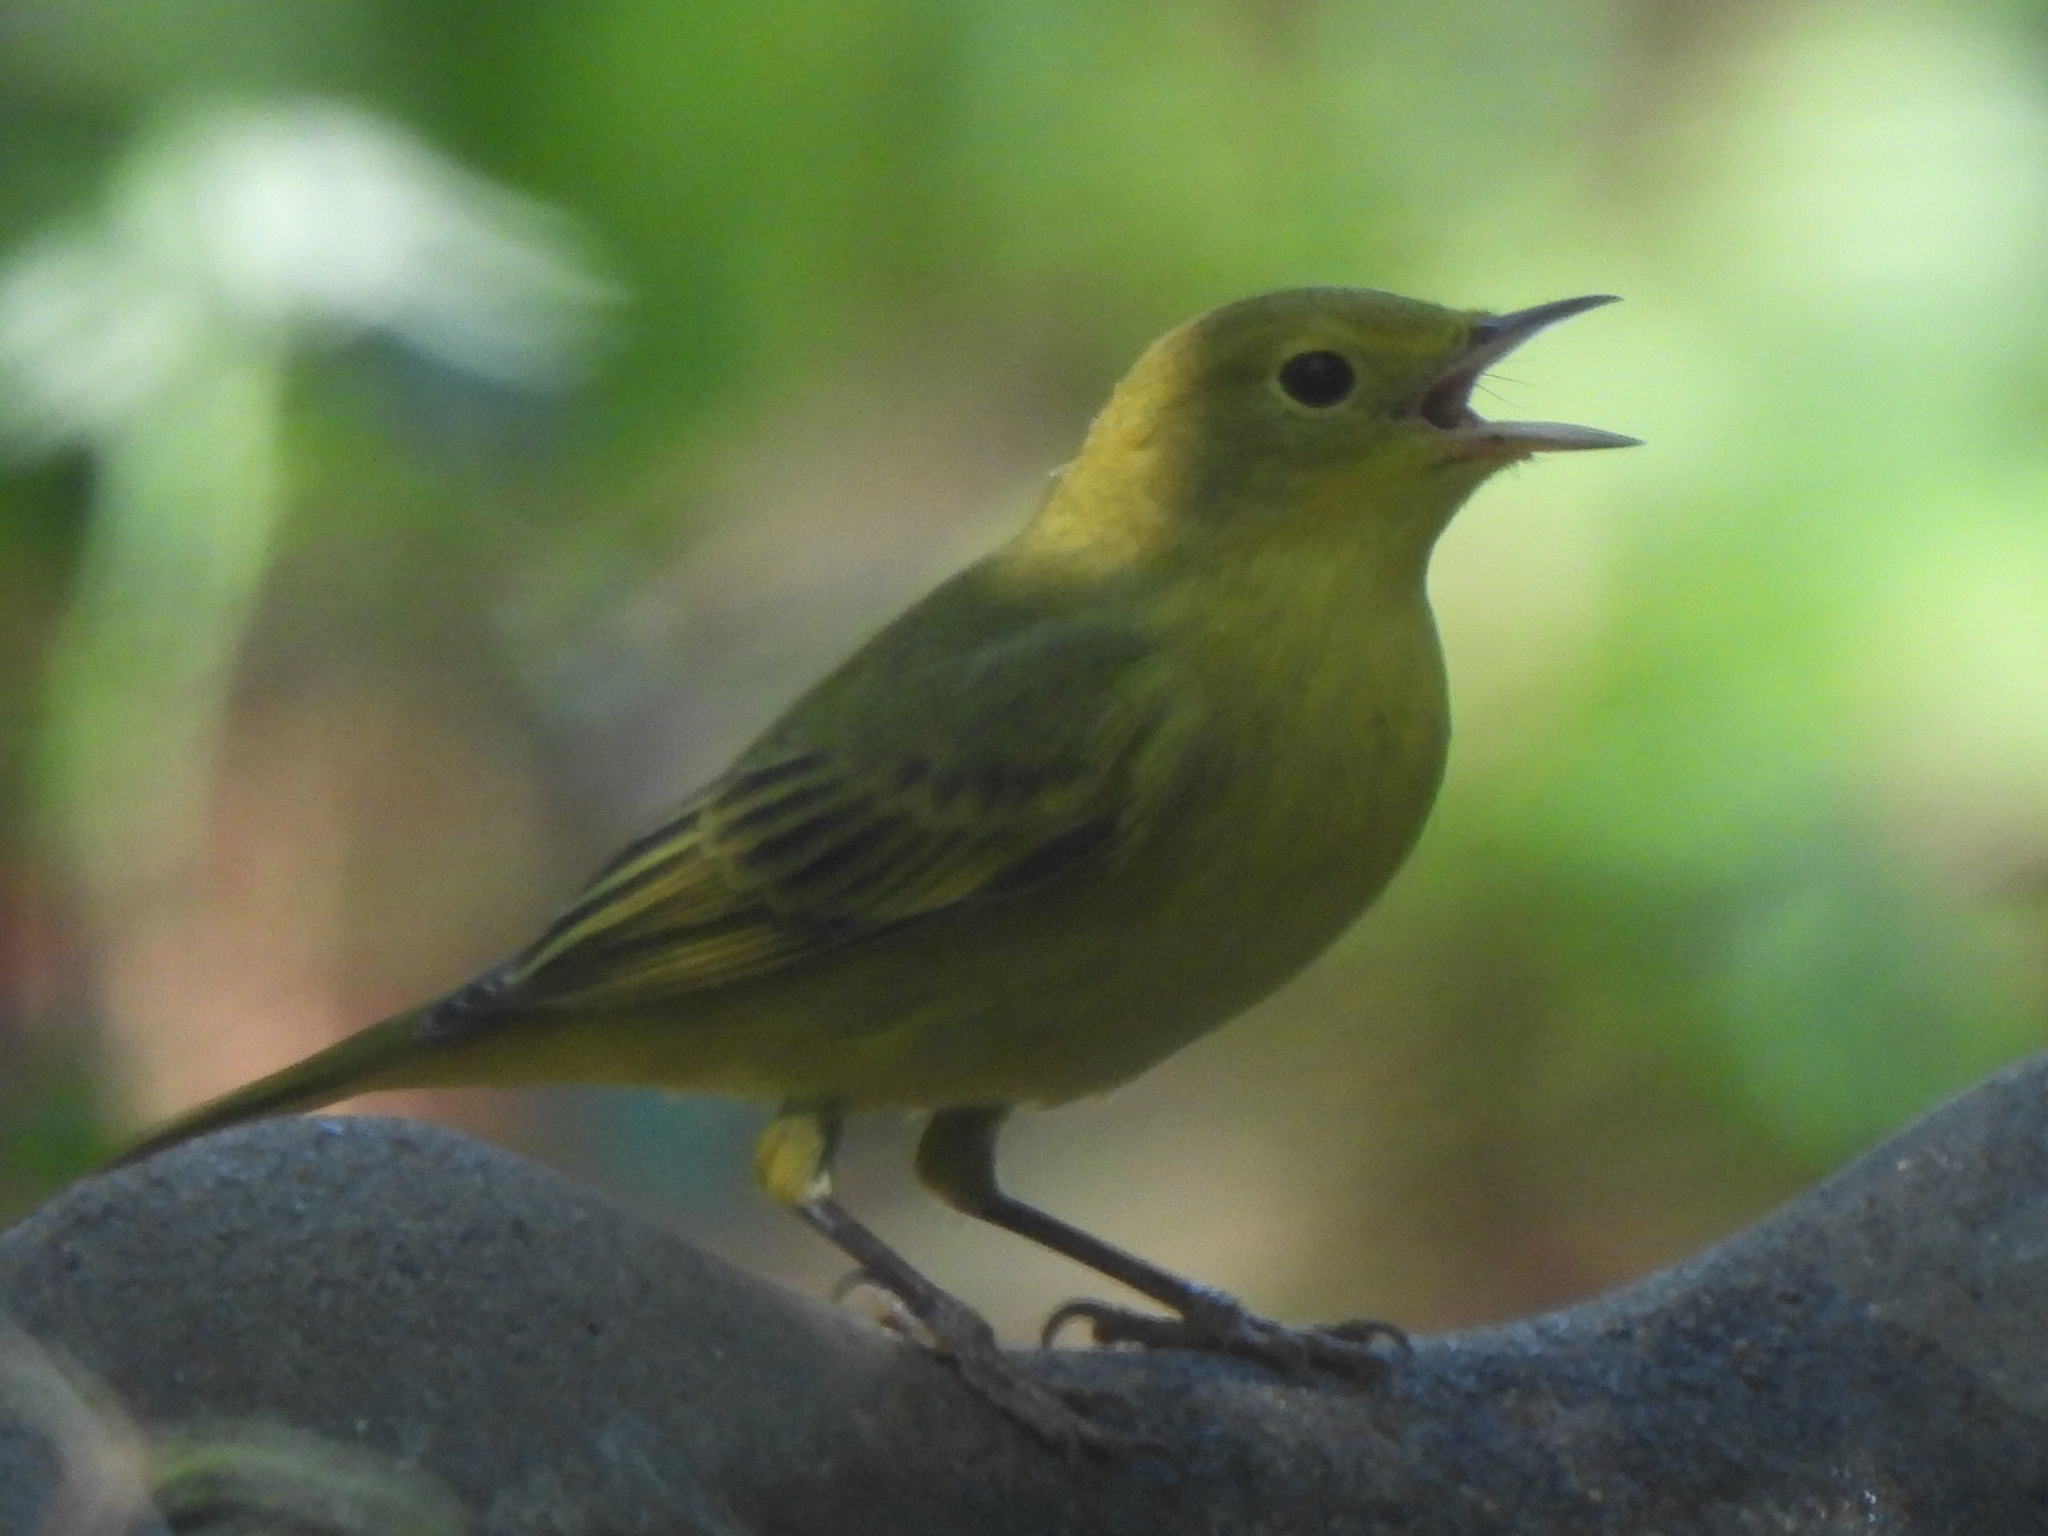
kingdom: Animalia
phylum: Chordata
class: Aves
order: Passeriformes
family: Parulidae
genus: Setophaga
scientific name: Setophaga petechia
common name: Yellow warbler
